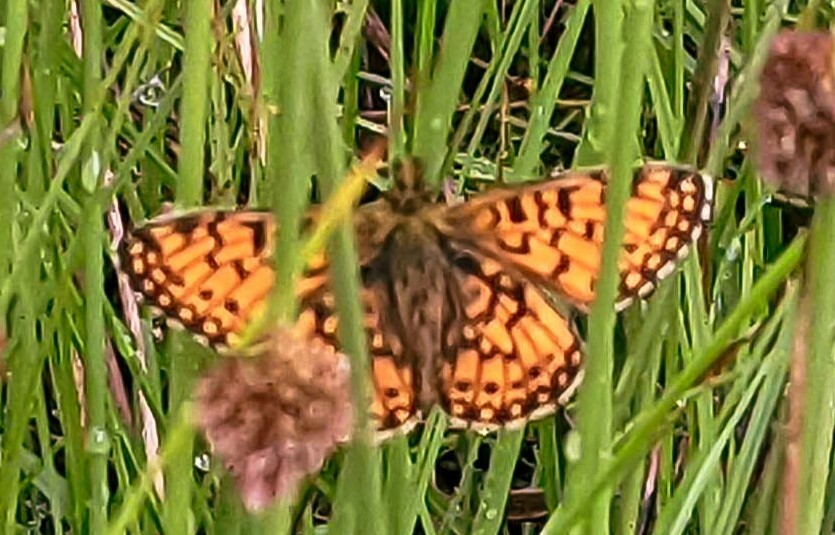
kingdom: Animalia
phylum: Arthropoda
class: Insecta
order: Lepidoptera
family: Nymphalidae
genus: Boloria
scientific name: Boloria selene
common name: Small pearl-bordered fritillary
